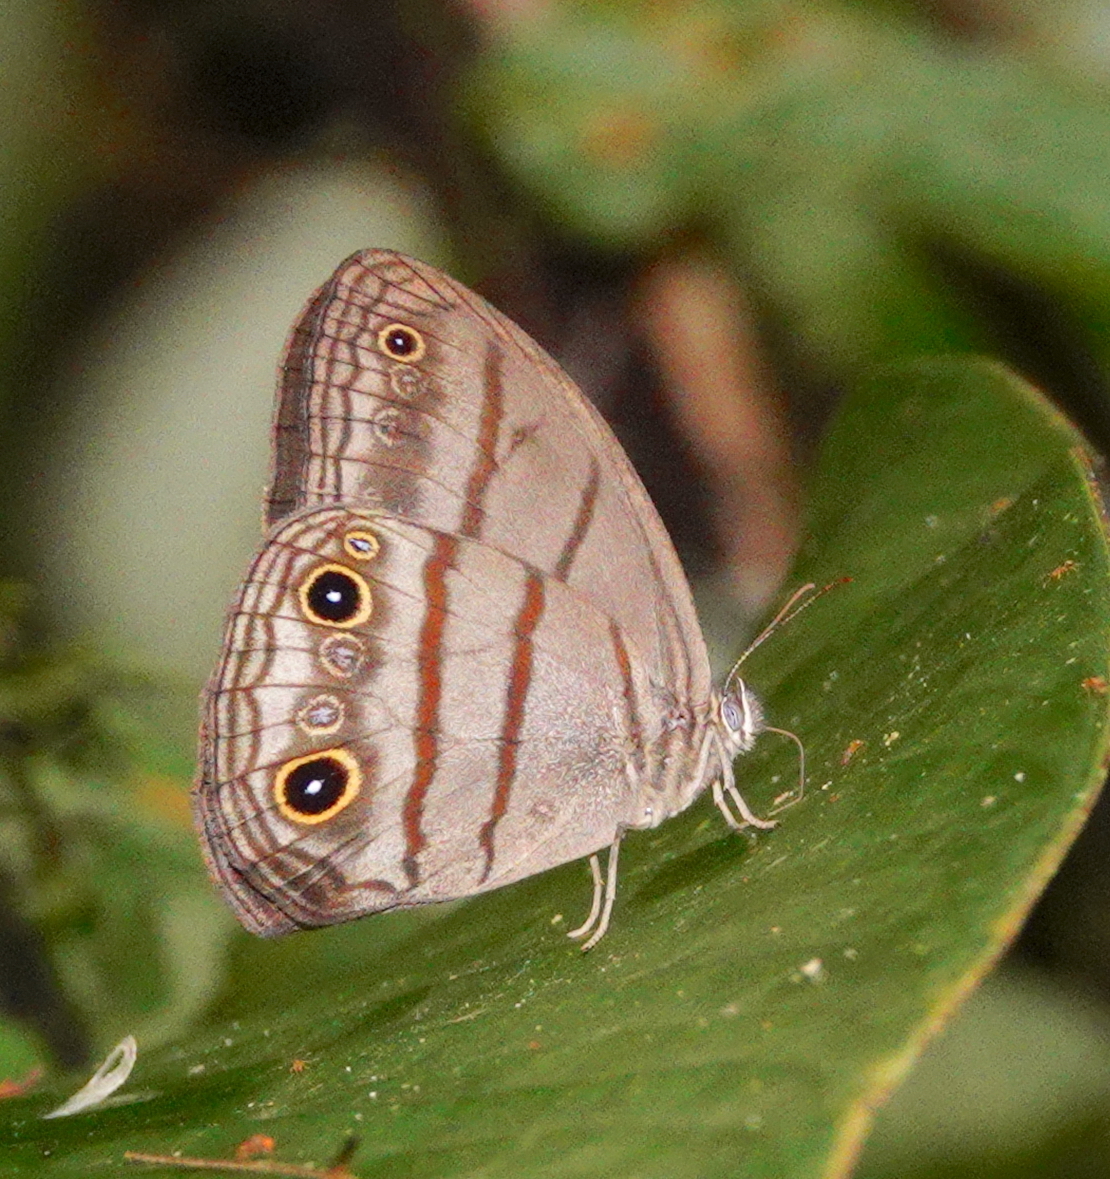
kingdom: Animalia
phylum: Arthropoda
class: Insecta
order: Lepidoptera
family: Nymphalidae
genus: Megeuptychia
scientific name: Megeuptychia monopunctata
